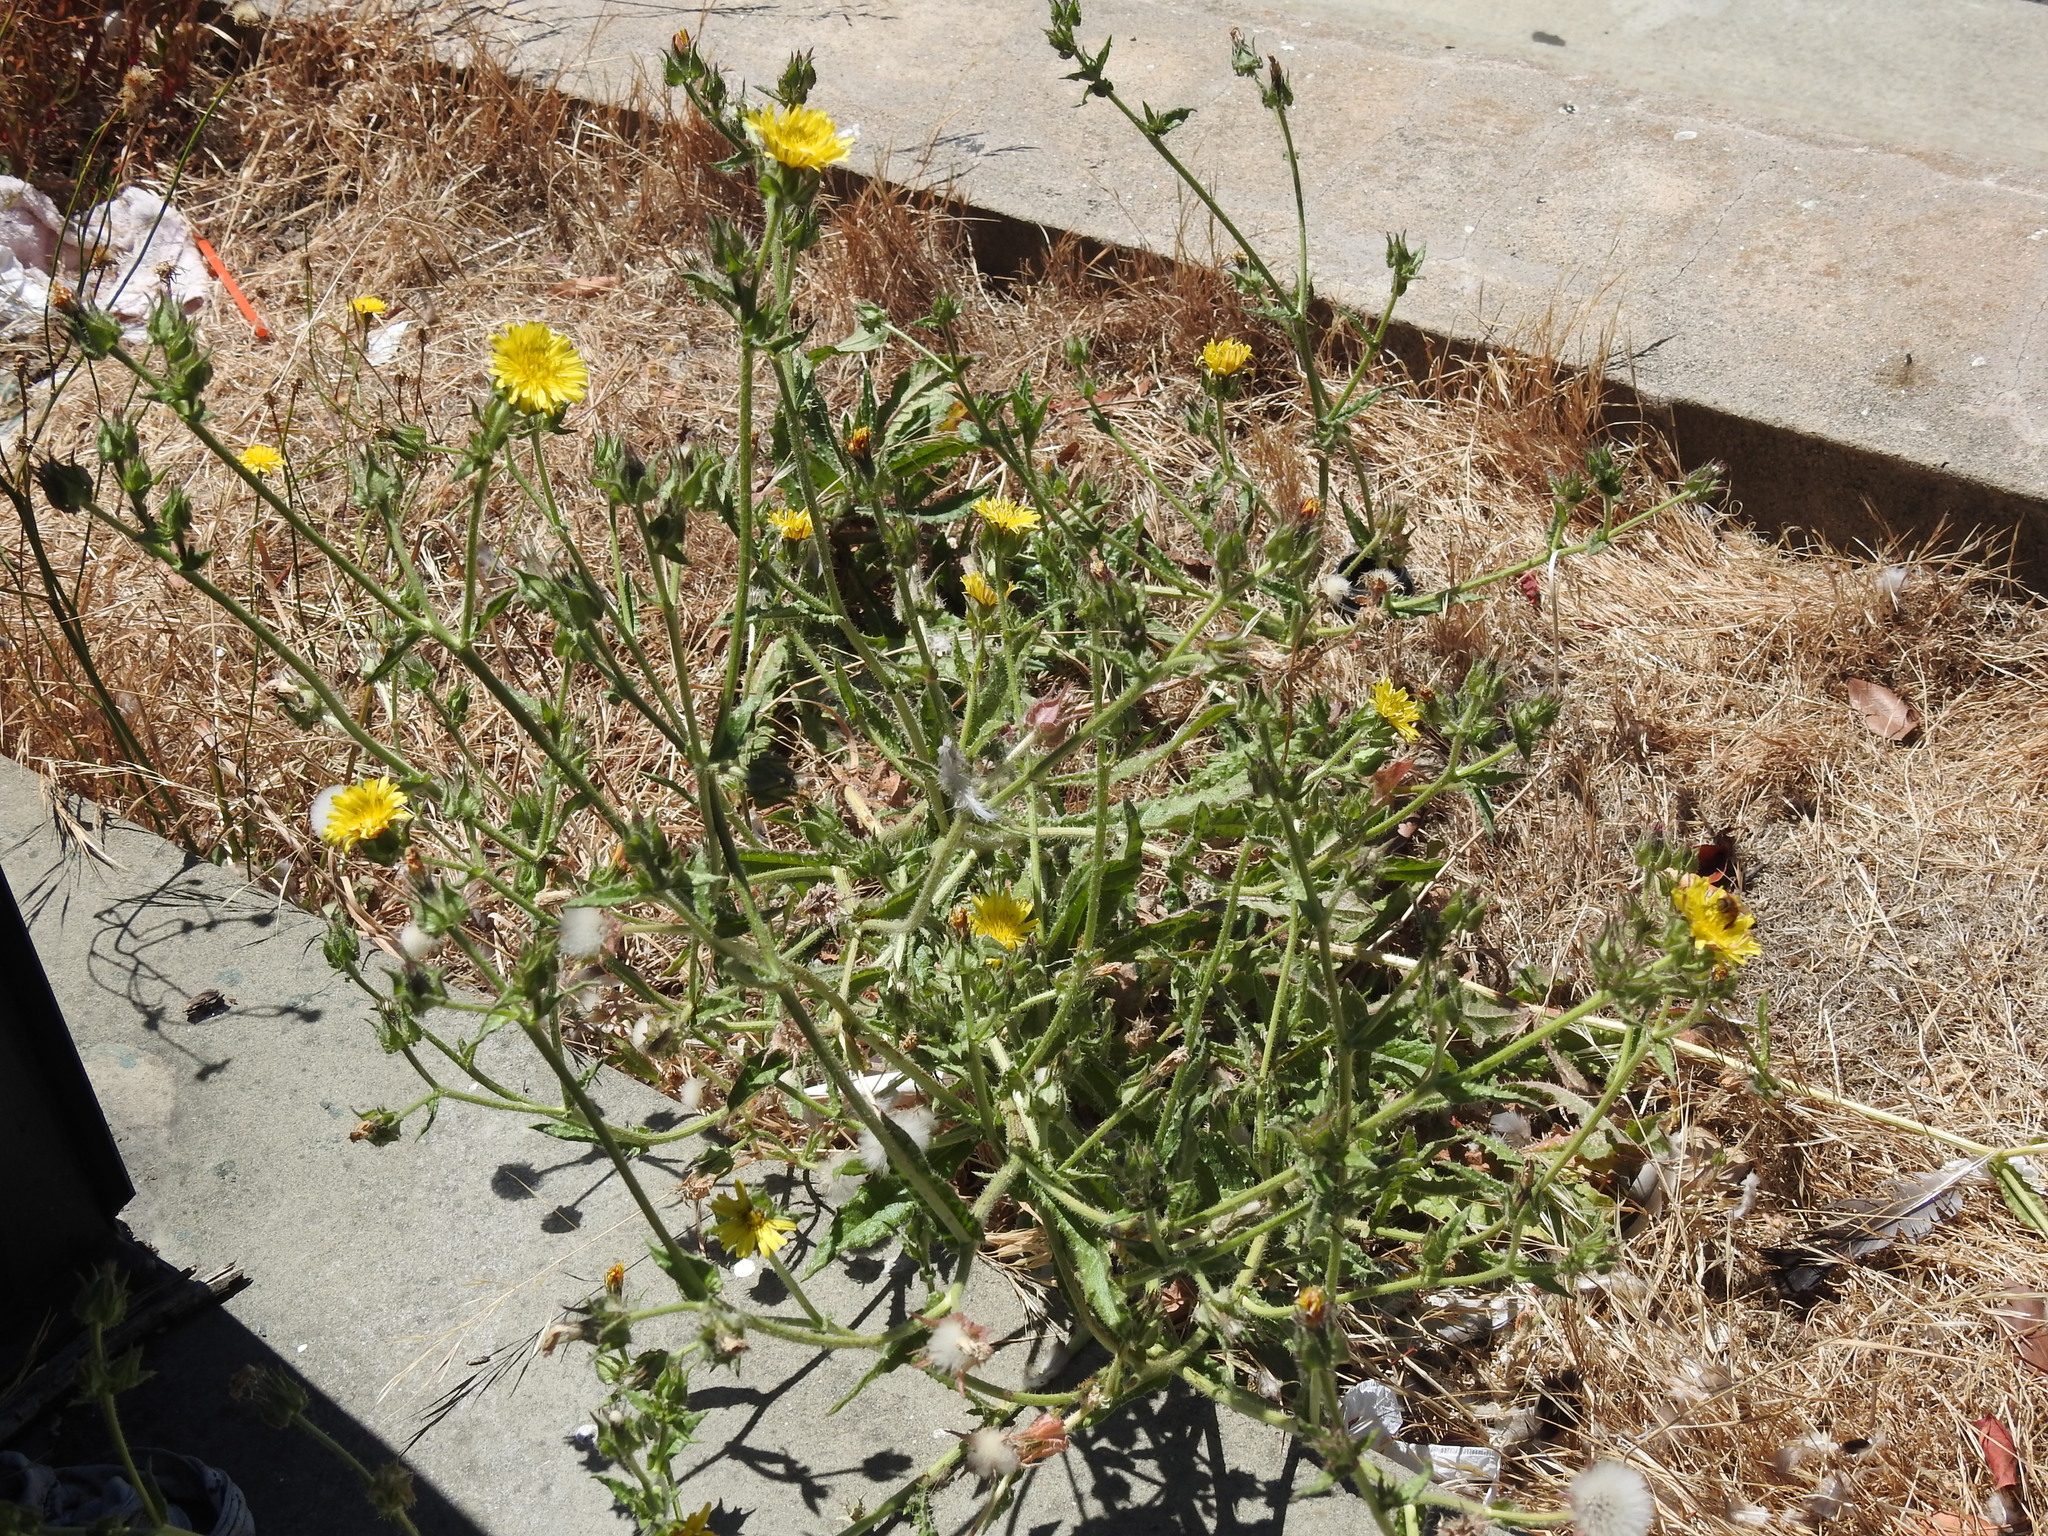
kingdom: Plantae
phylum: Tracheophyta
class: Magnoliopsida
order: Asterales
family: Asteraceae
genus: Helminthotheca
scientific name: Helminthotheca echioides
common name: Ox-tongue
